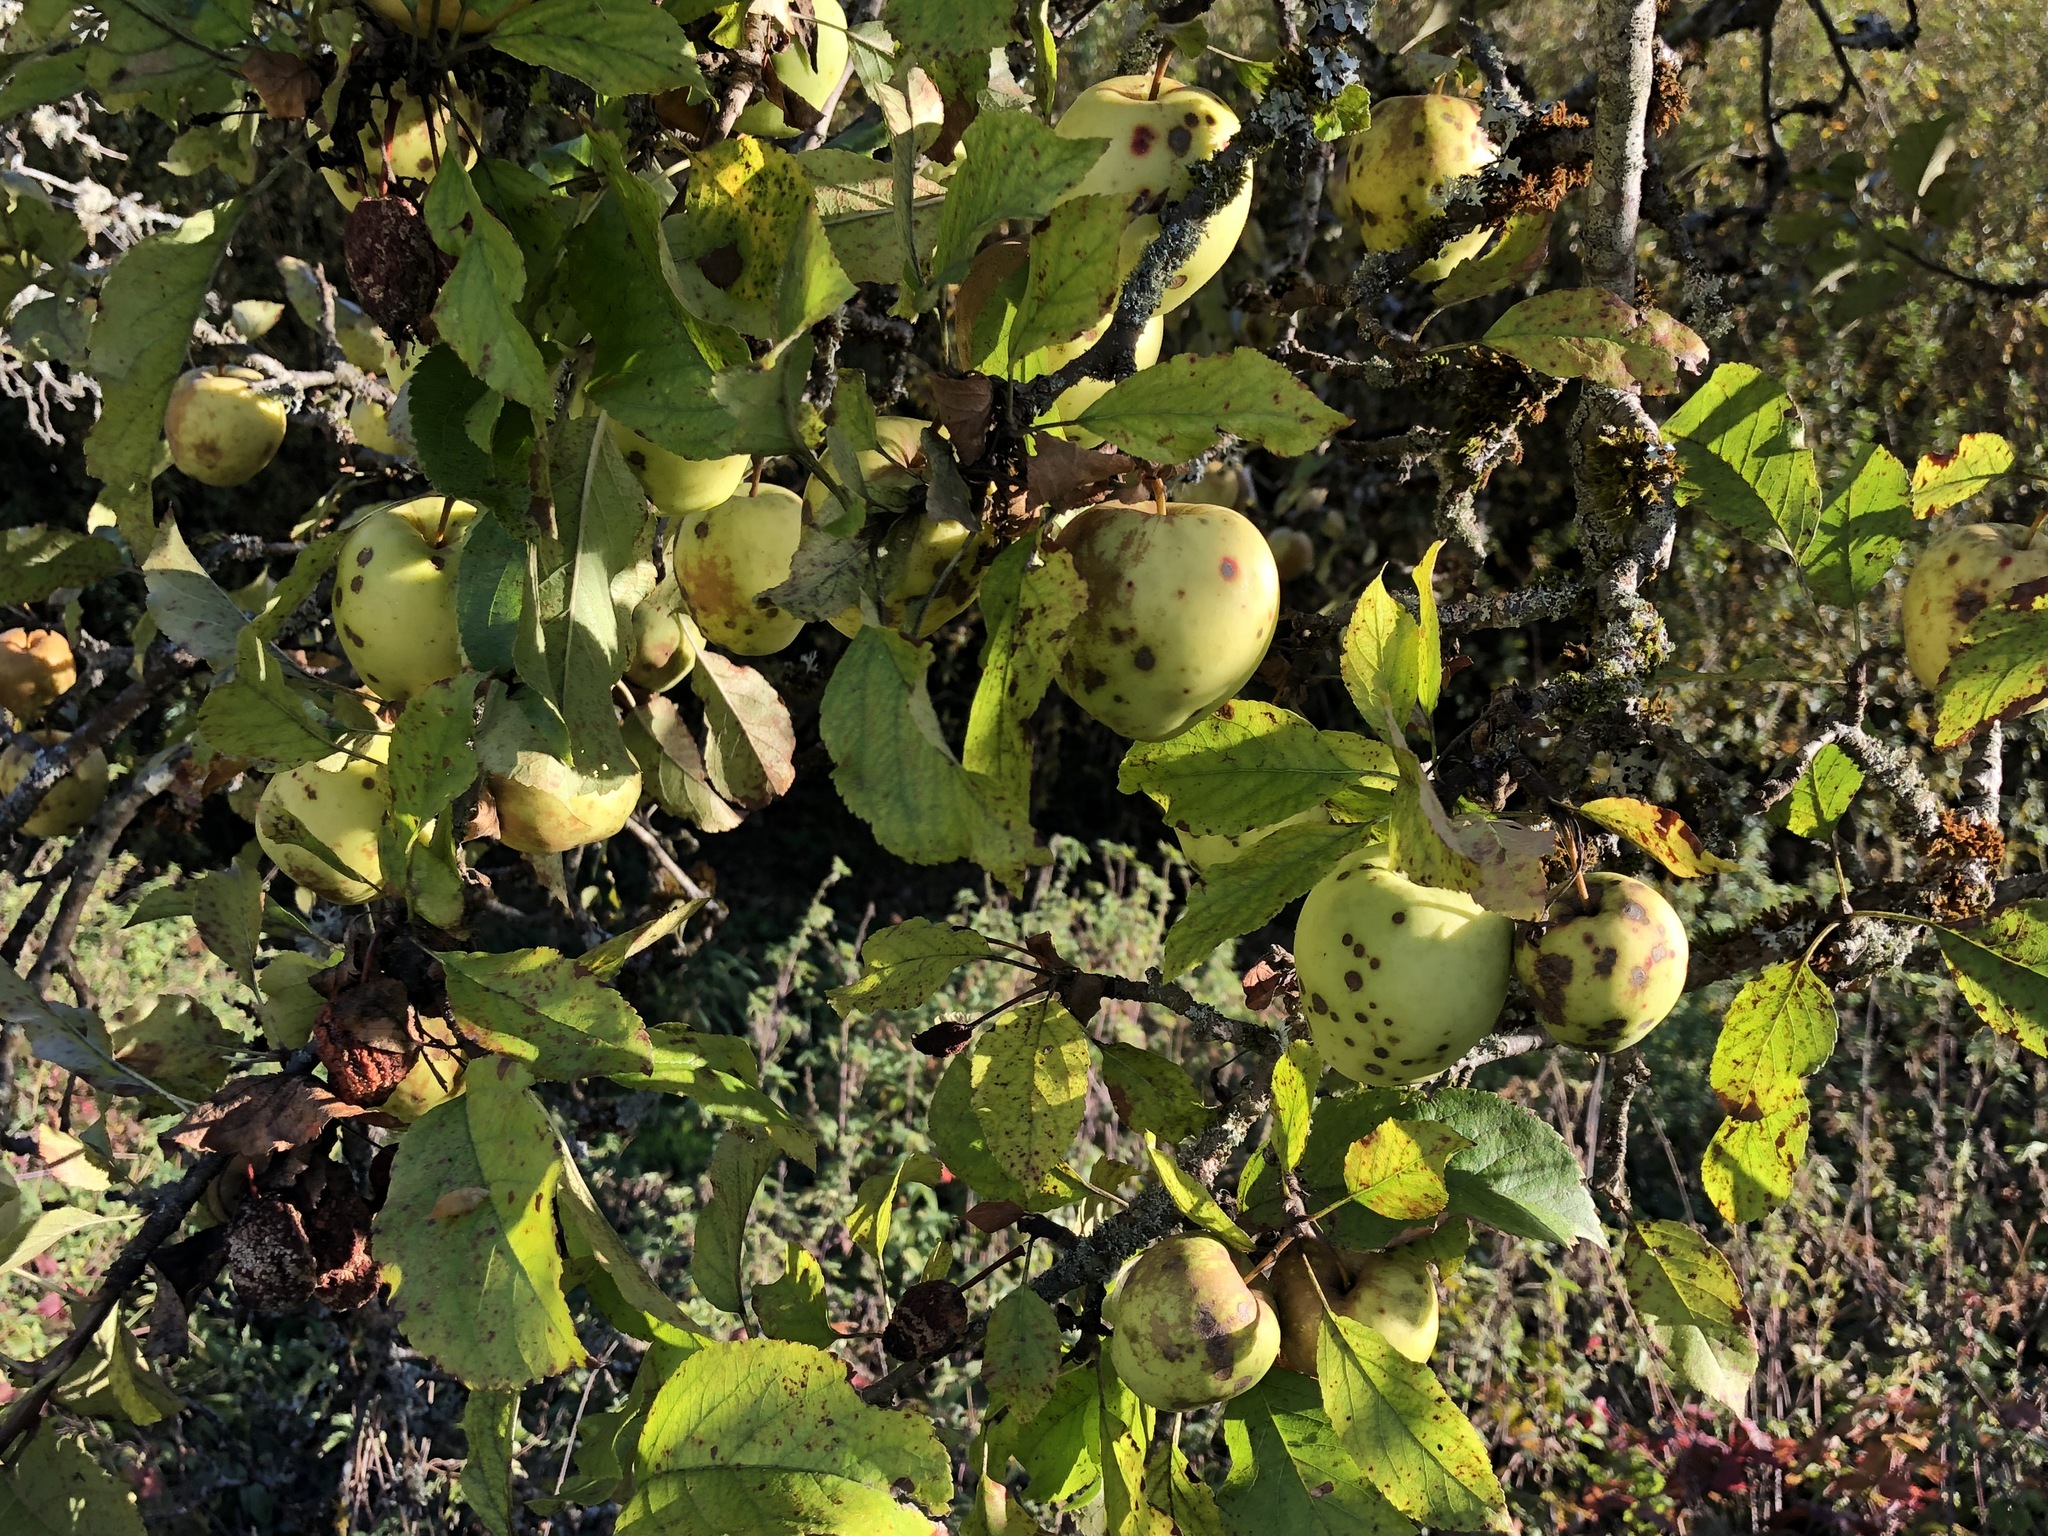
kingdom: Plantae
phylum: Tracheophyta
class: Magnoliopsida
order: Rosales
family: Rosaceae
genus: Malus
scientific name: Malus domestica
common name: Apple
